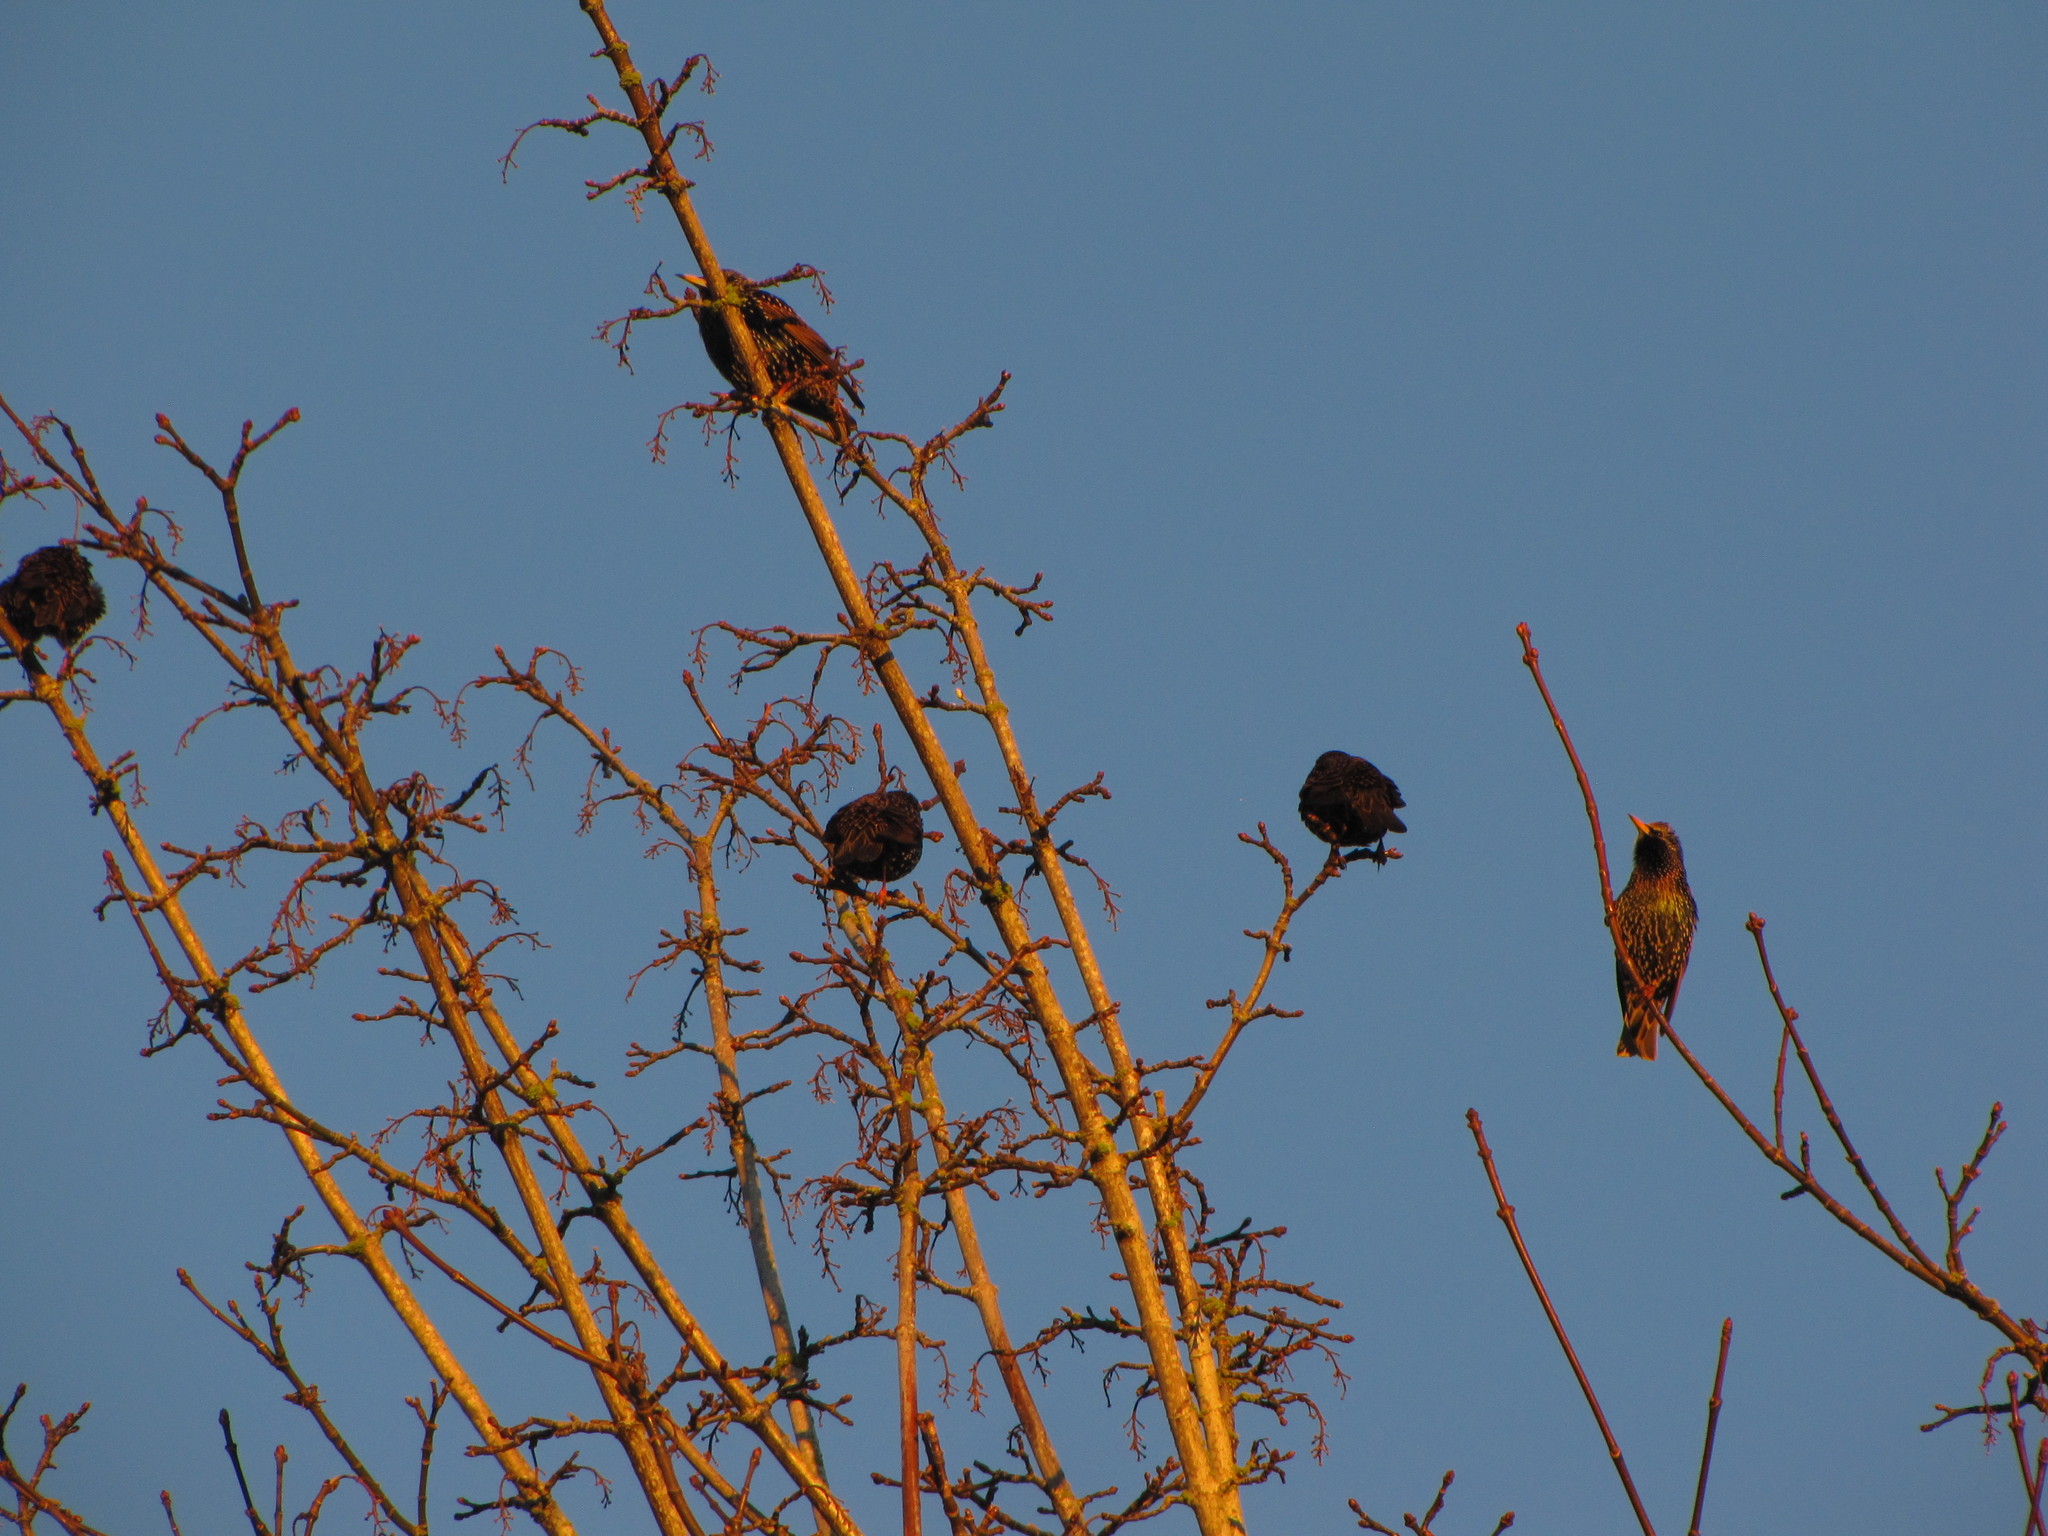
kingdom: Animalia
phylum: Chordata
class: Aves
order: Passeriformes
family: Sturnidae
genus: Sturnus
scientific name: Sturnus vulgaris
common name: Common starling
